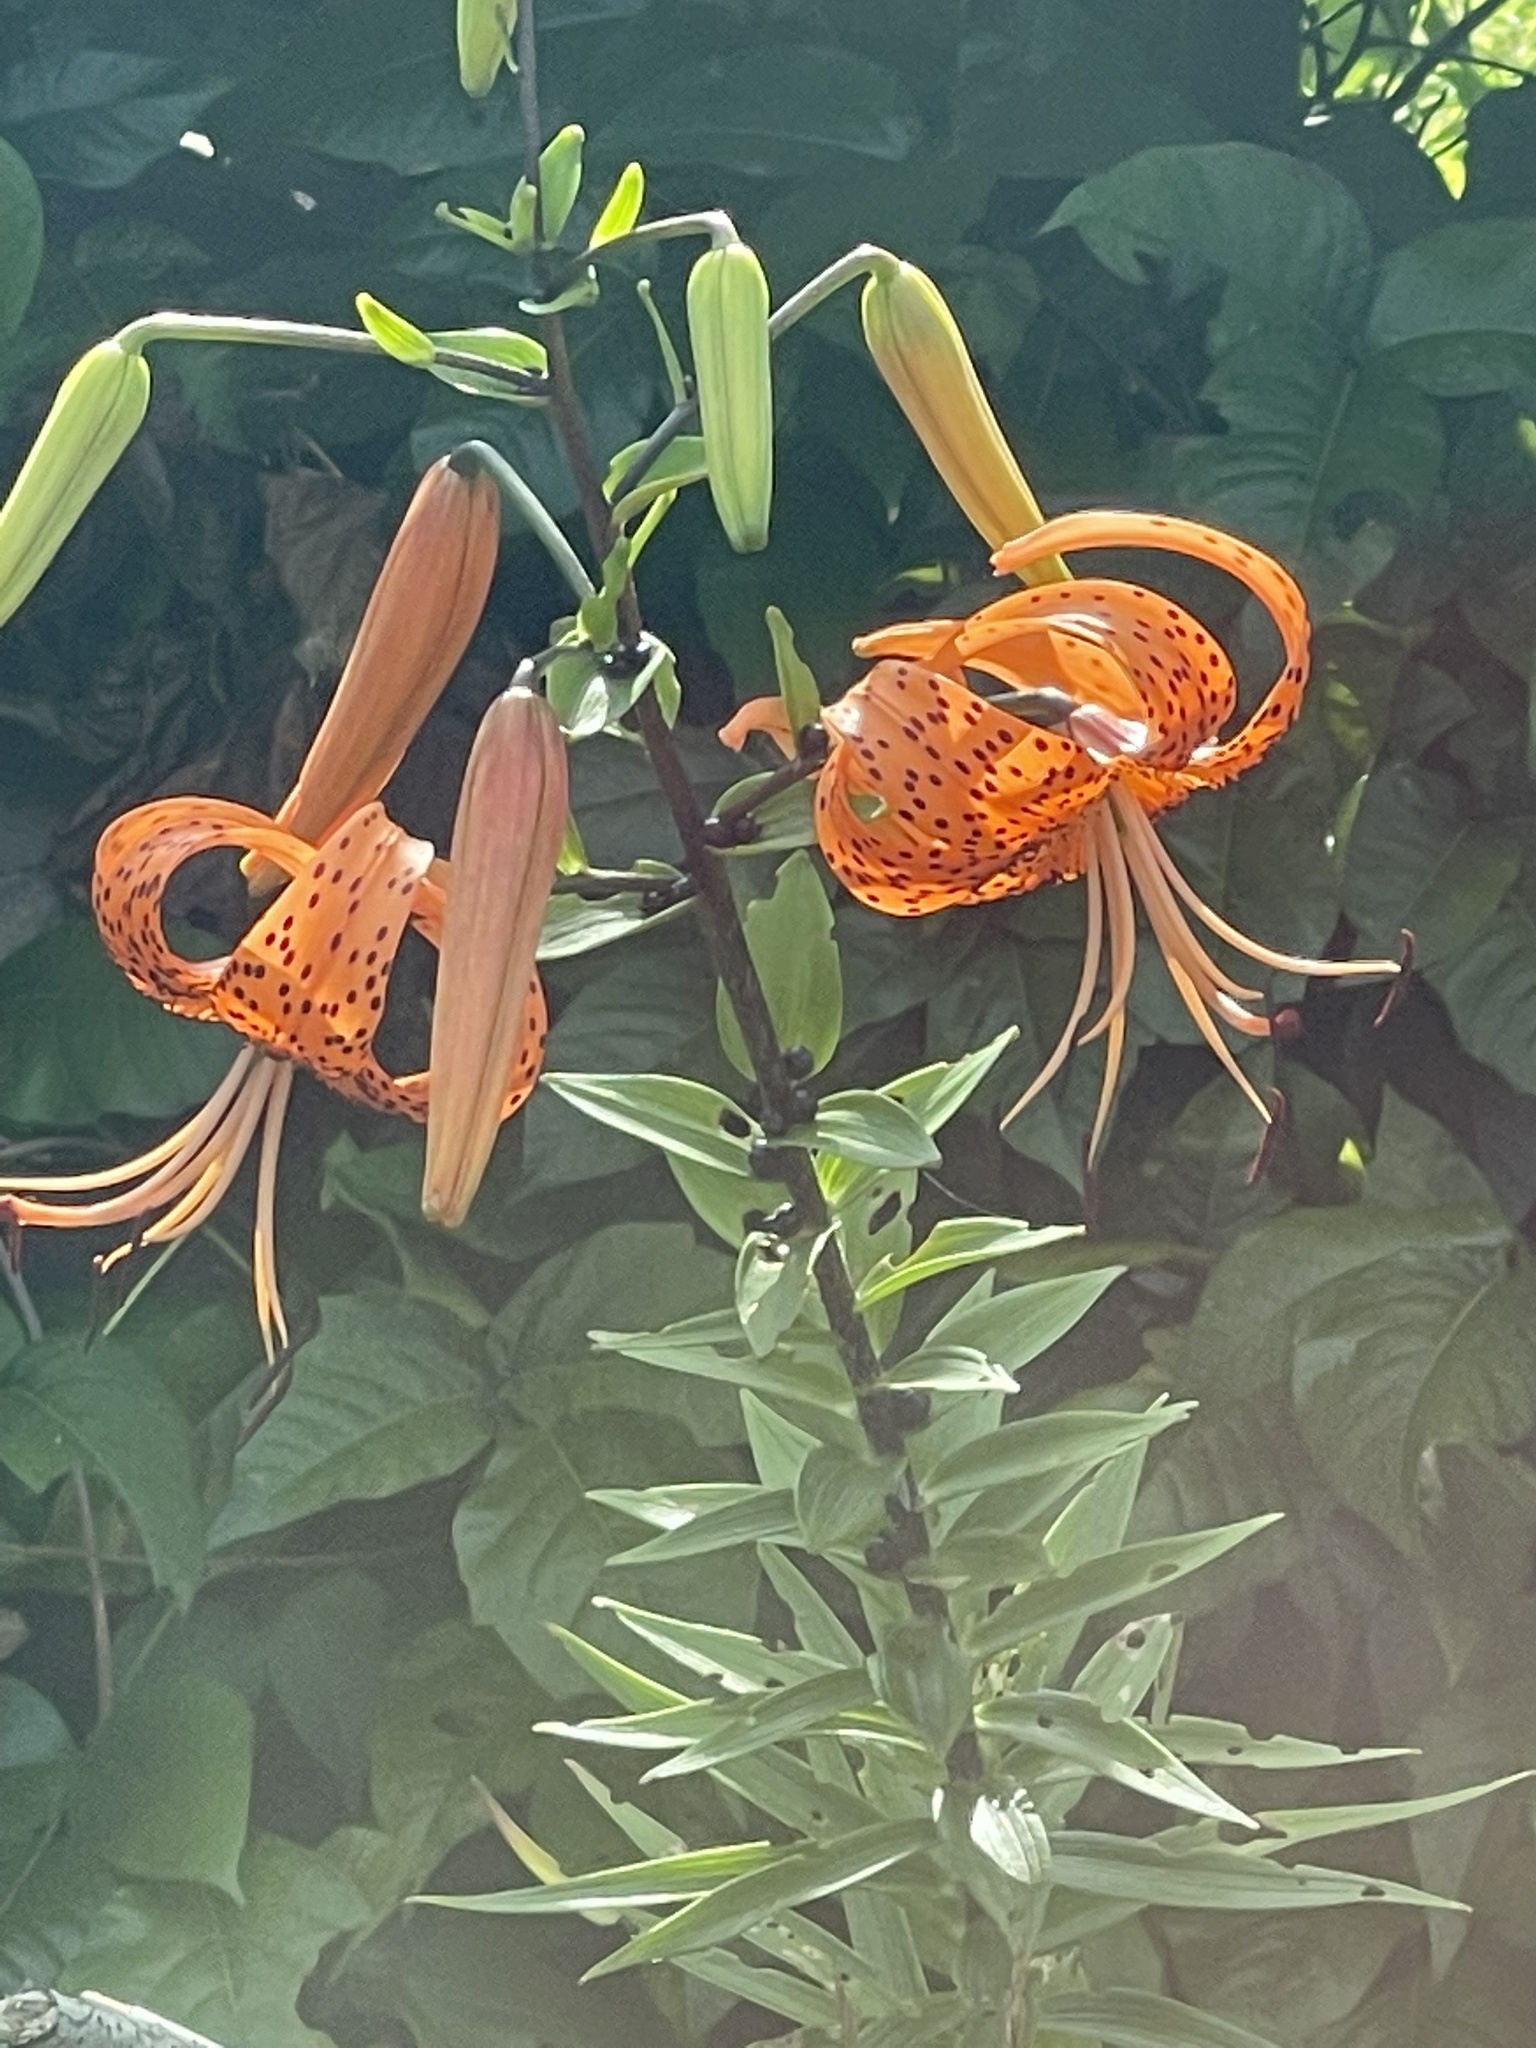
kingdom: Plantae
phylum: Tracheophyta
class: Liliopsida
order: Liliales
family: Liliaceae
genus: Lilium
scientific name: Lilium lancifolium
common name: Tiger lily
